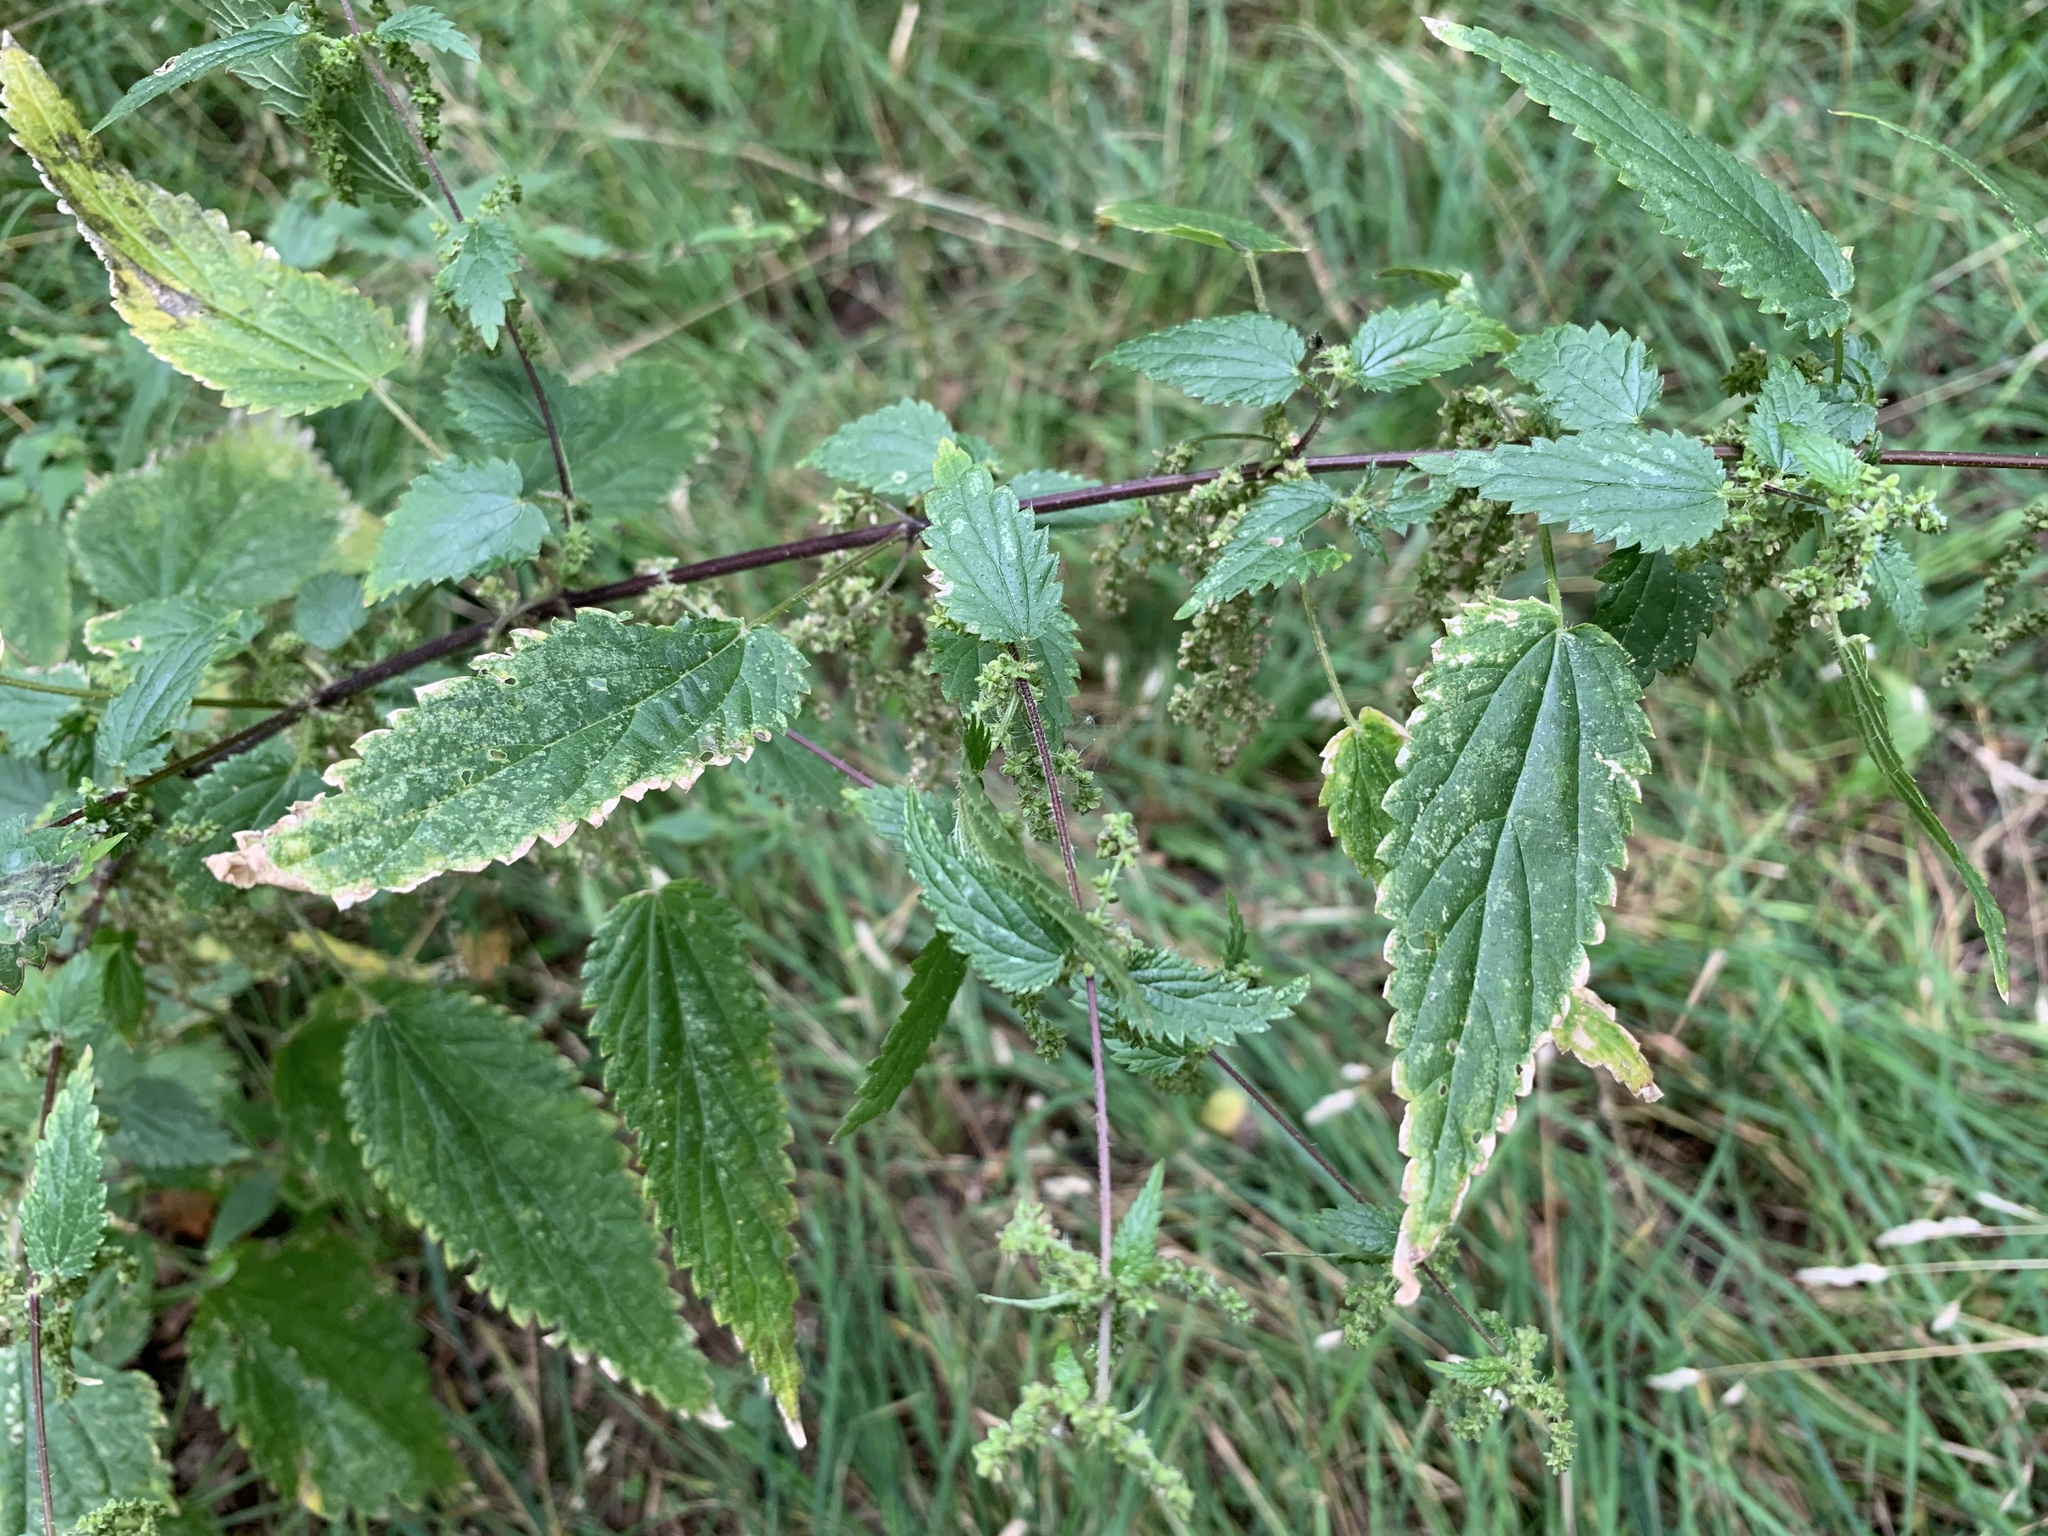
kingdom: Plantae
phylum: Tracheophyta
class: Magnoliopsida
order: Rosales
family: Urticaceae
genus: Urtica
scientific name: Urtica dioica
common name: Common nettle
